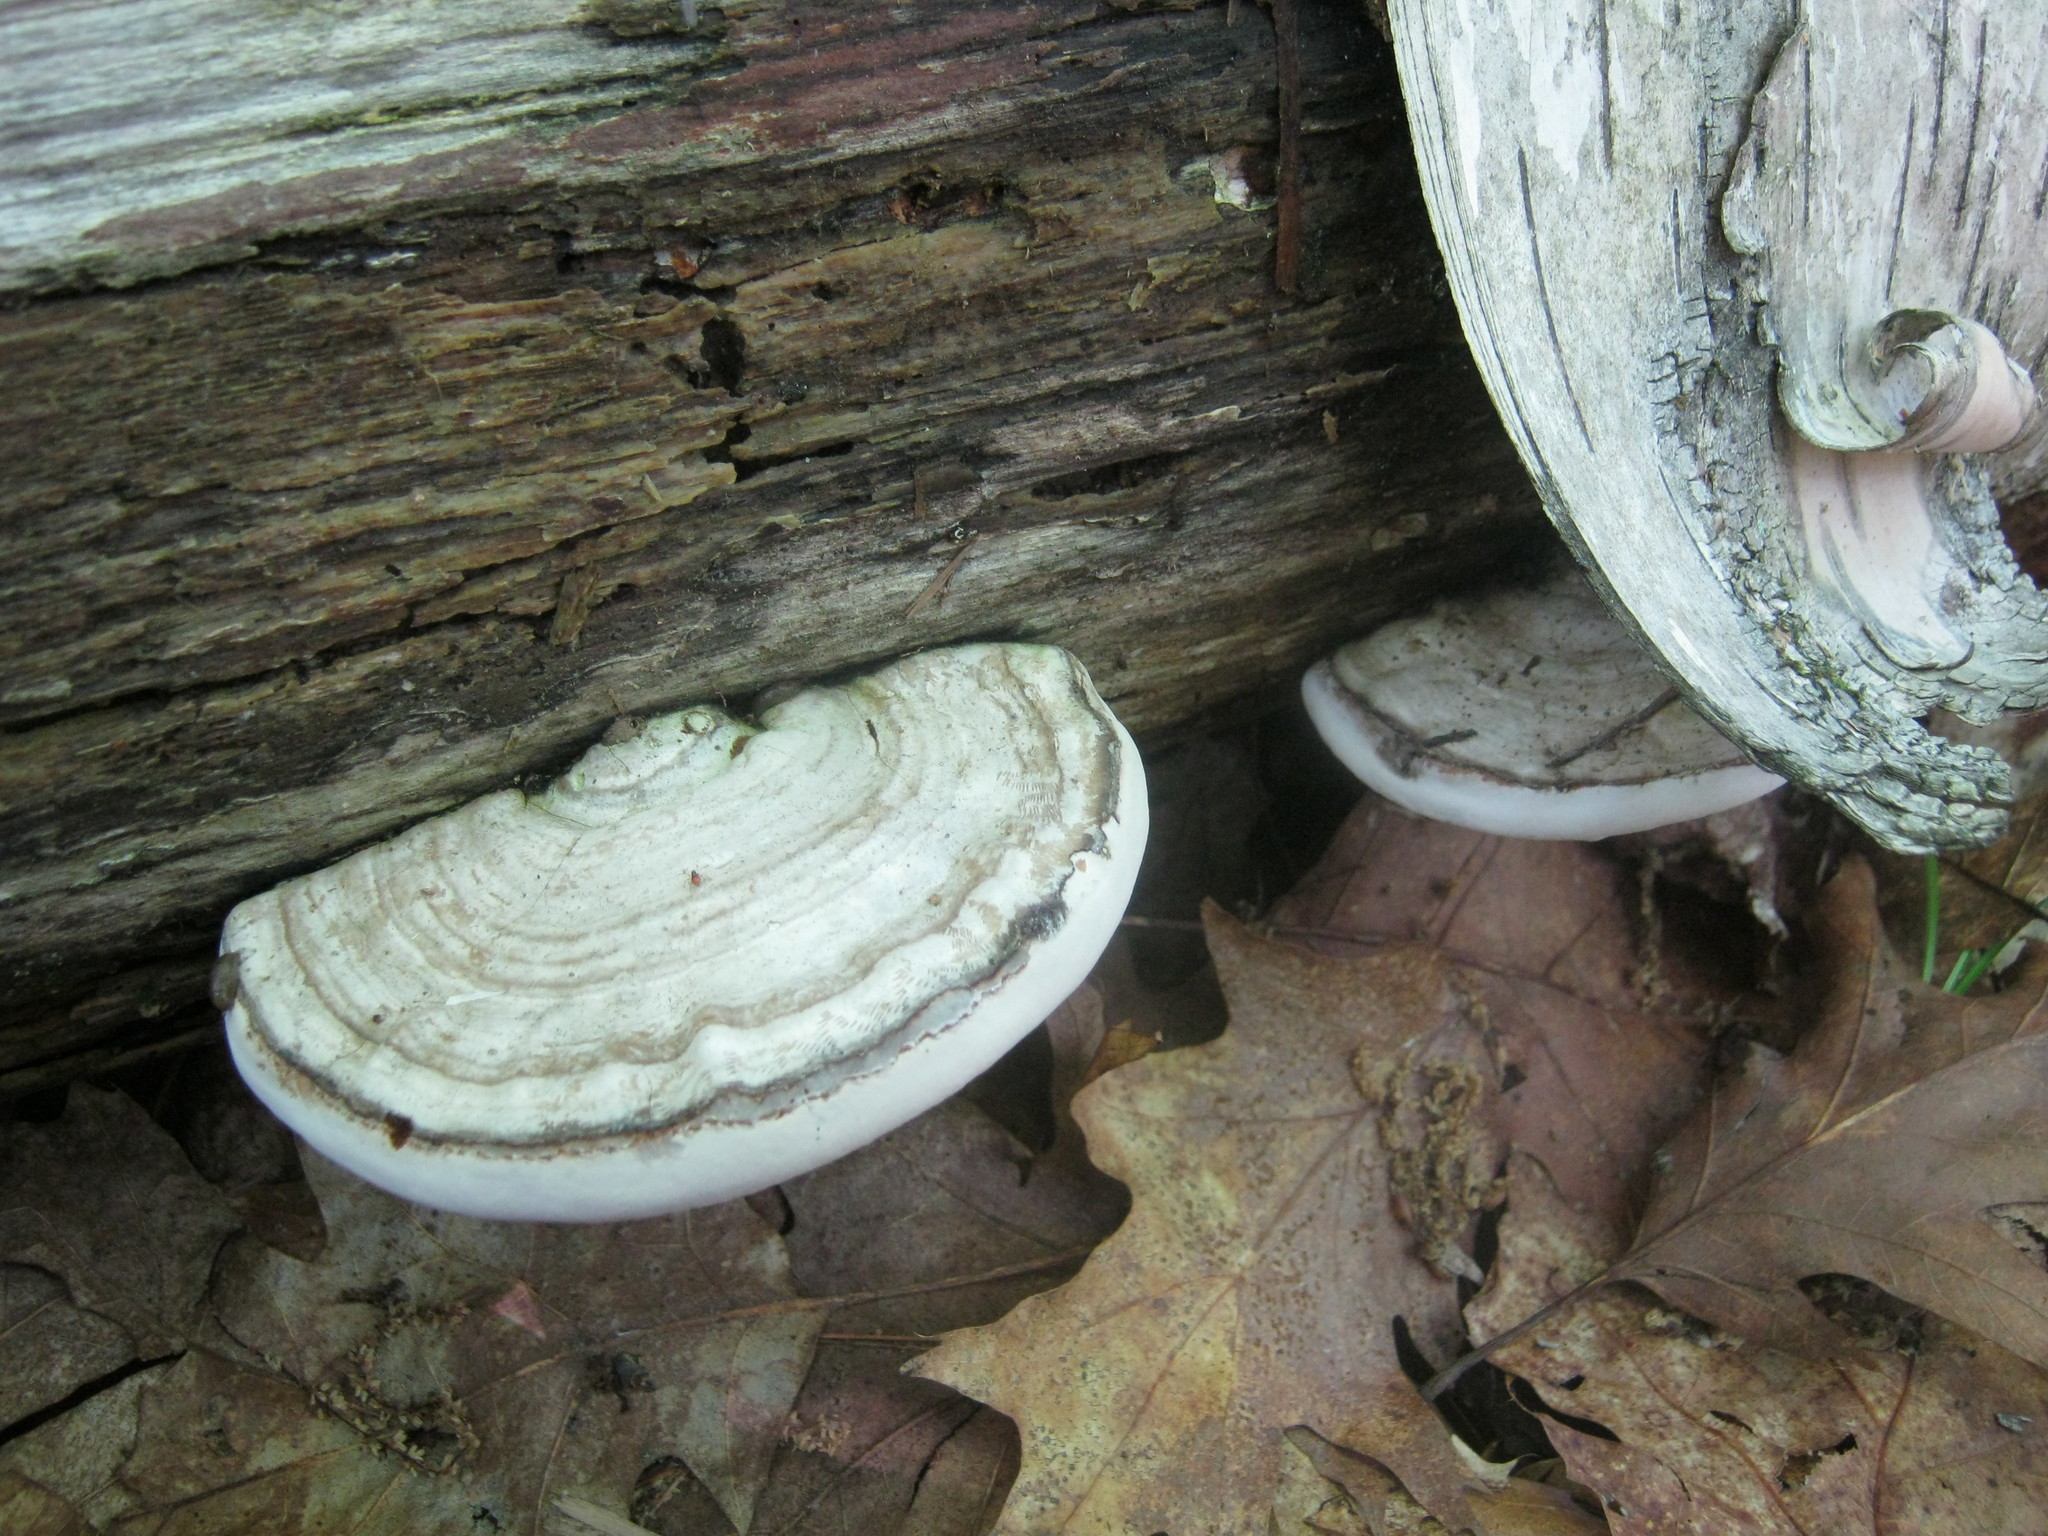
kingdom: Fungi
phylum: Basidiomycota
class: Agaricomycetes
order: Polyporales
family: Polyporaceae
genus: Ganoderma
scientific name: Ganoderma applanatum
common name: Artist's bracket
